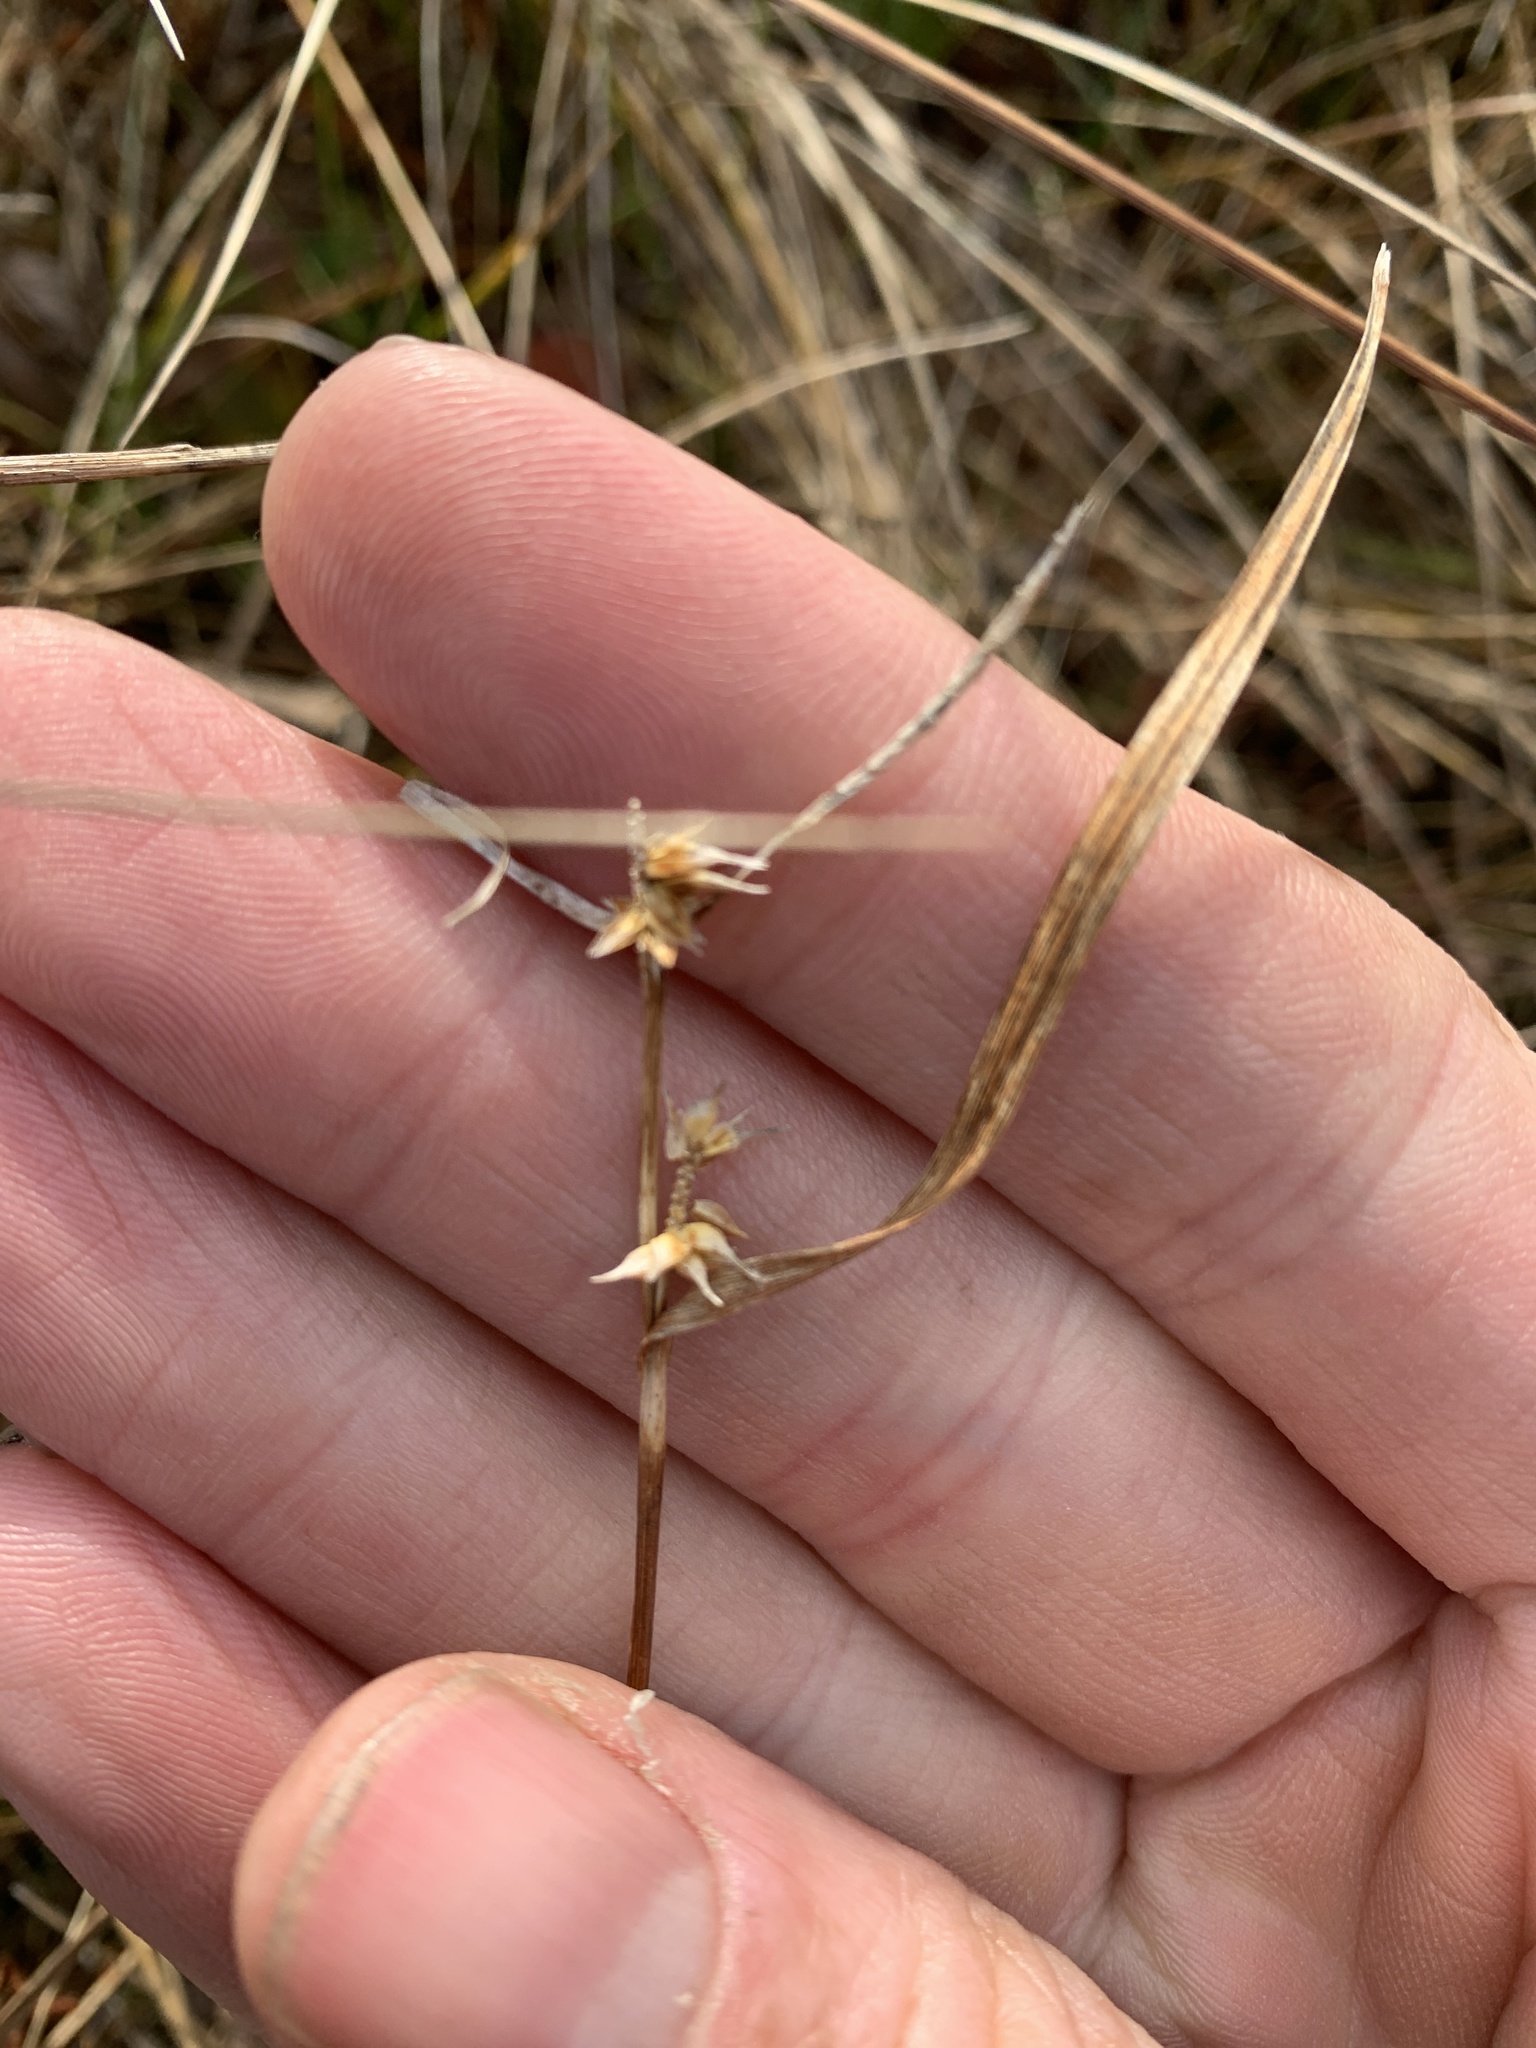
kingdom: Plantae
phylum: Tracheophyta
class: Liliopsida
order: Poales
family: Cyperaceae
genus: Carex
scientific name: Carex flava
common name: Large yellow-sedge
